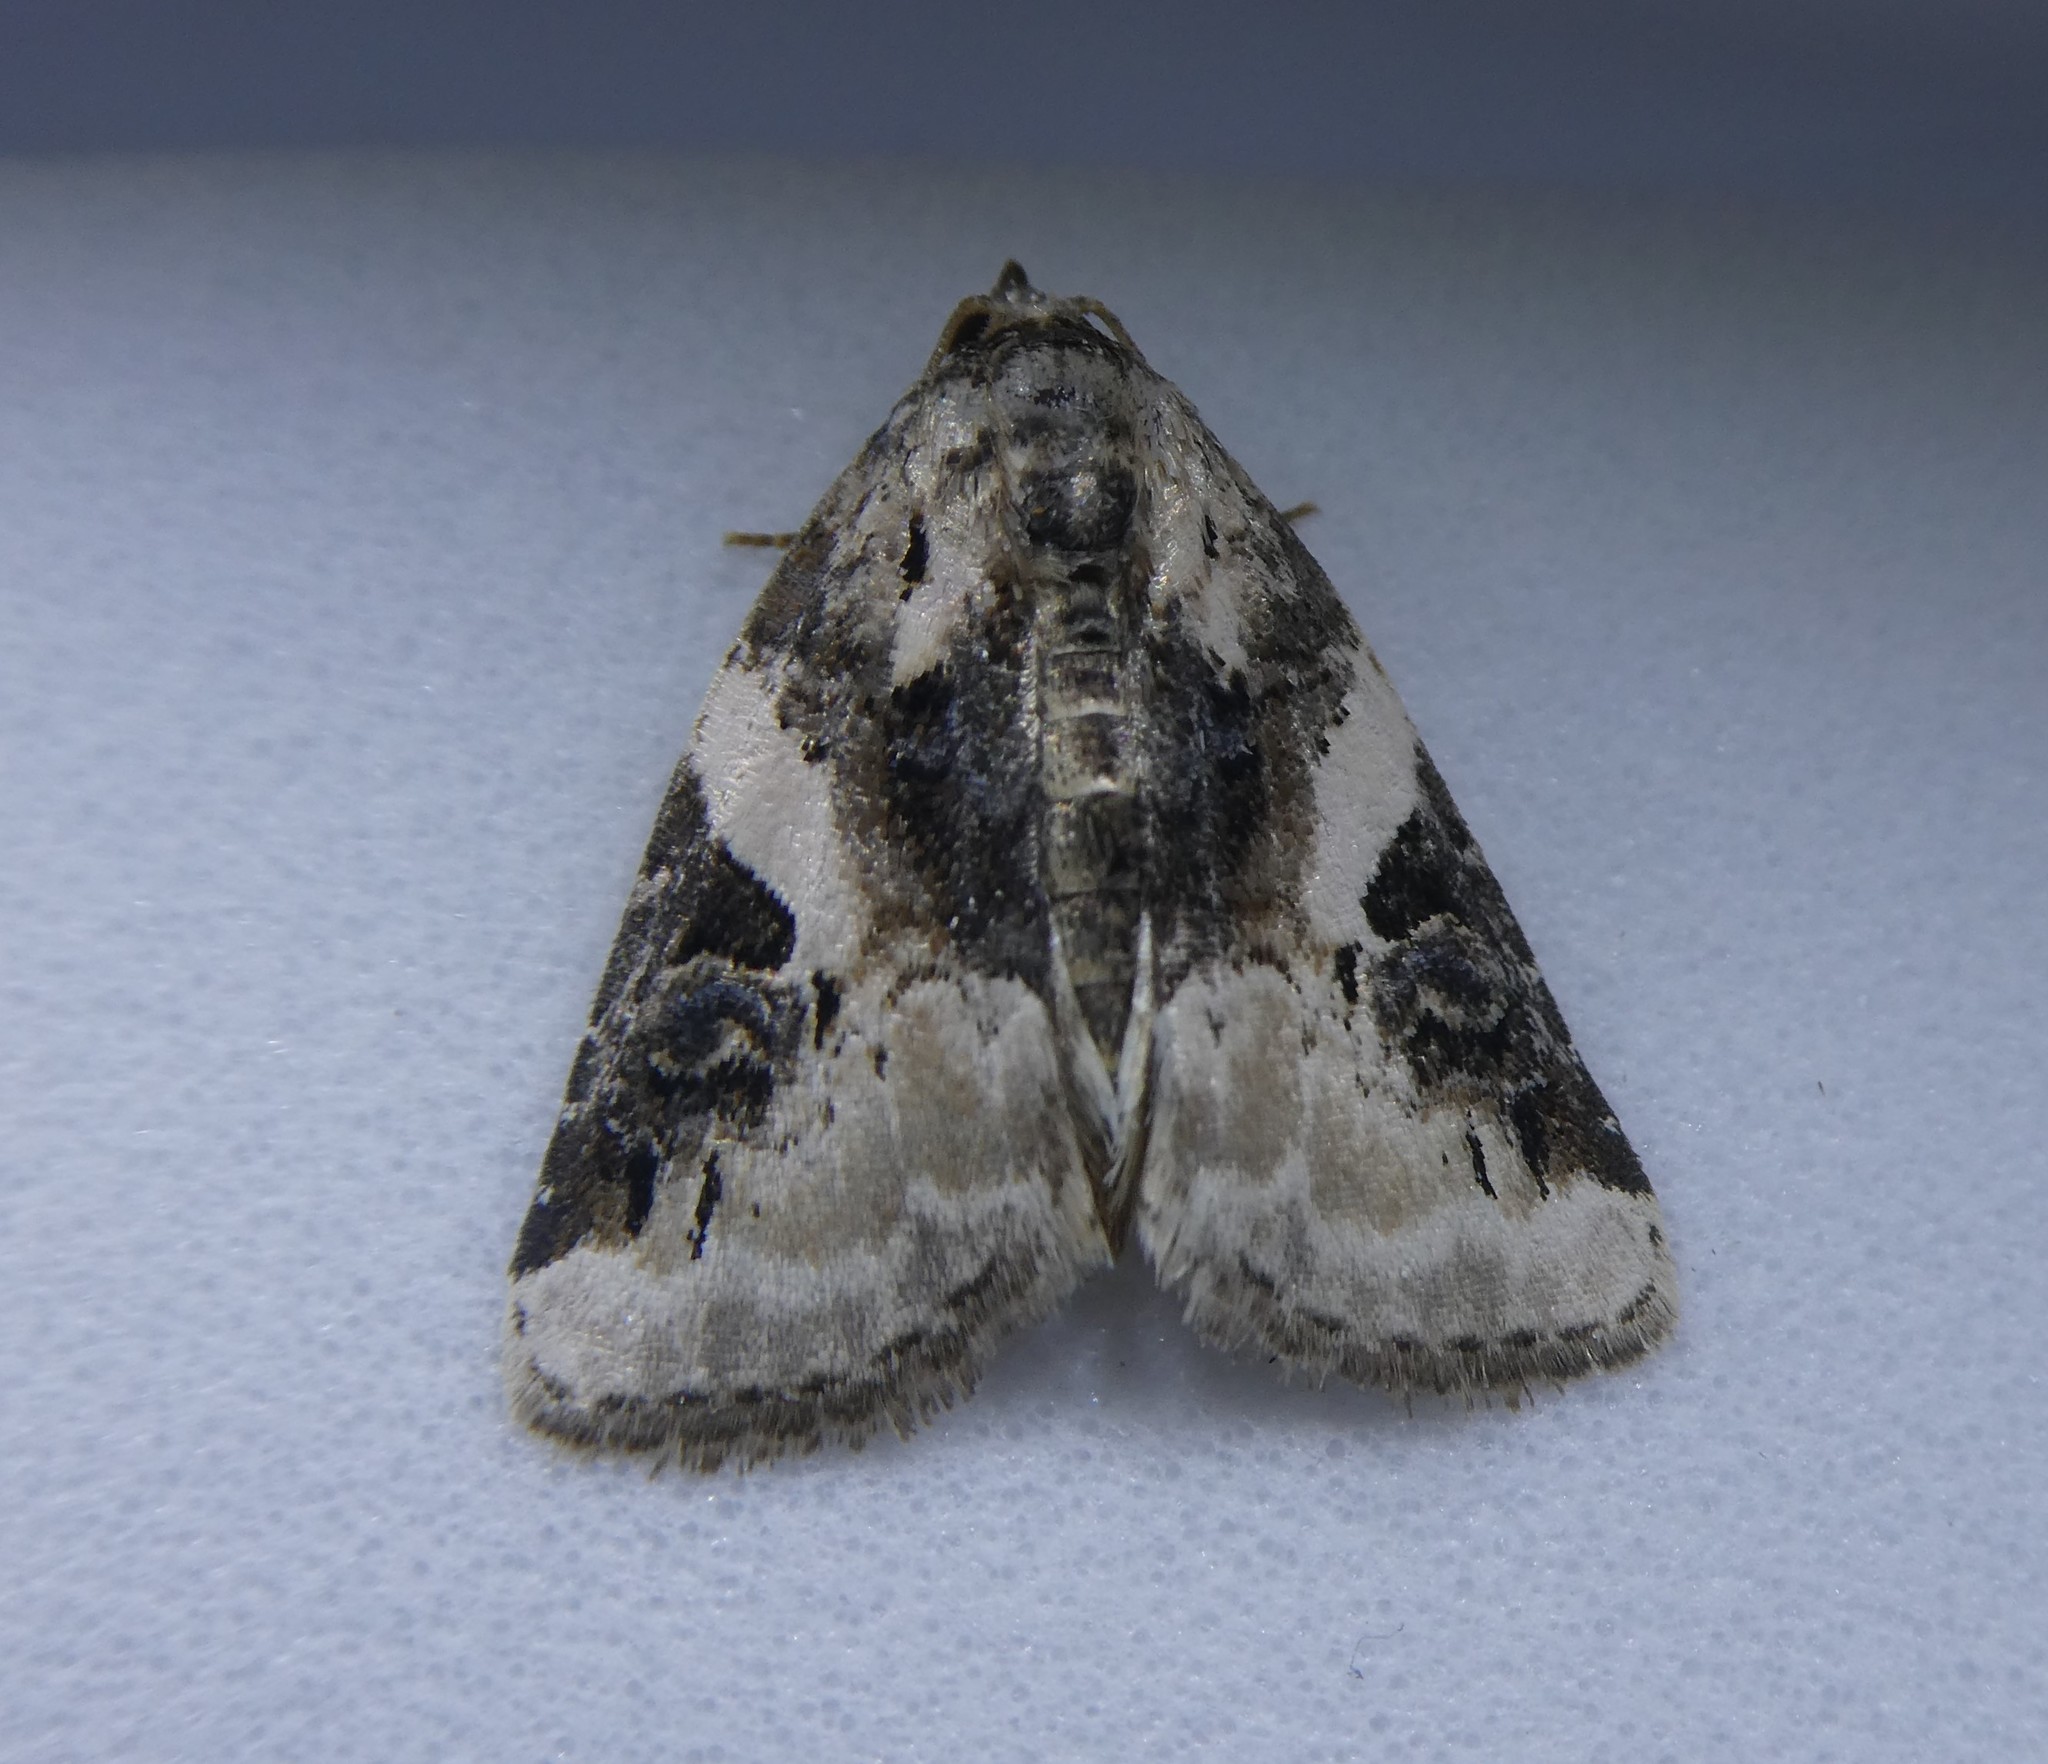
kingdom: Animalia
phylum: Arthropoda
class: Insecta
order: Lepidoptera
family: Noctuidae
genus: Pseudeustrotia
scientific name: Pseudeustrotia carneola
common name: Pink-barred lithacodia moth
